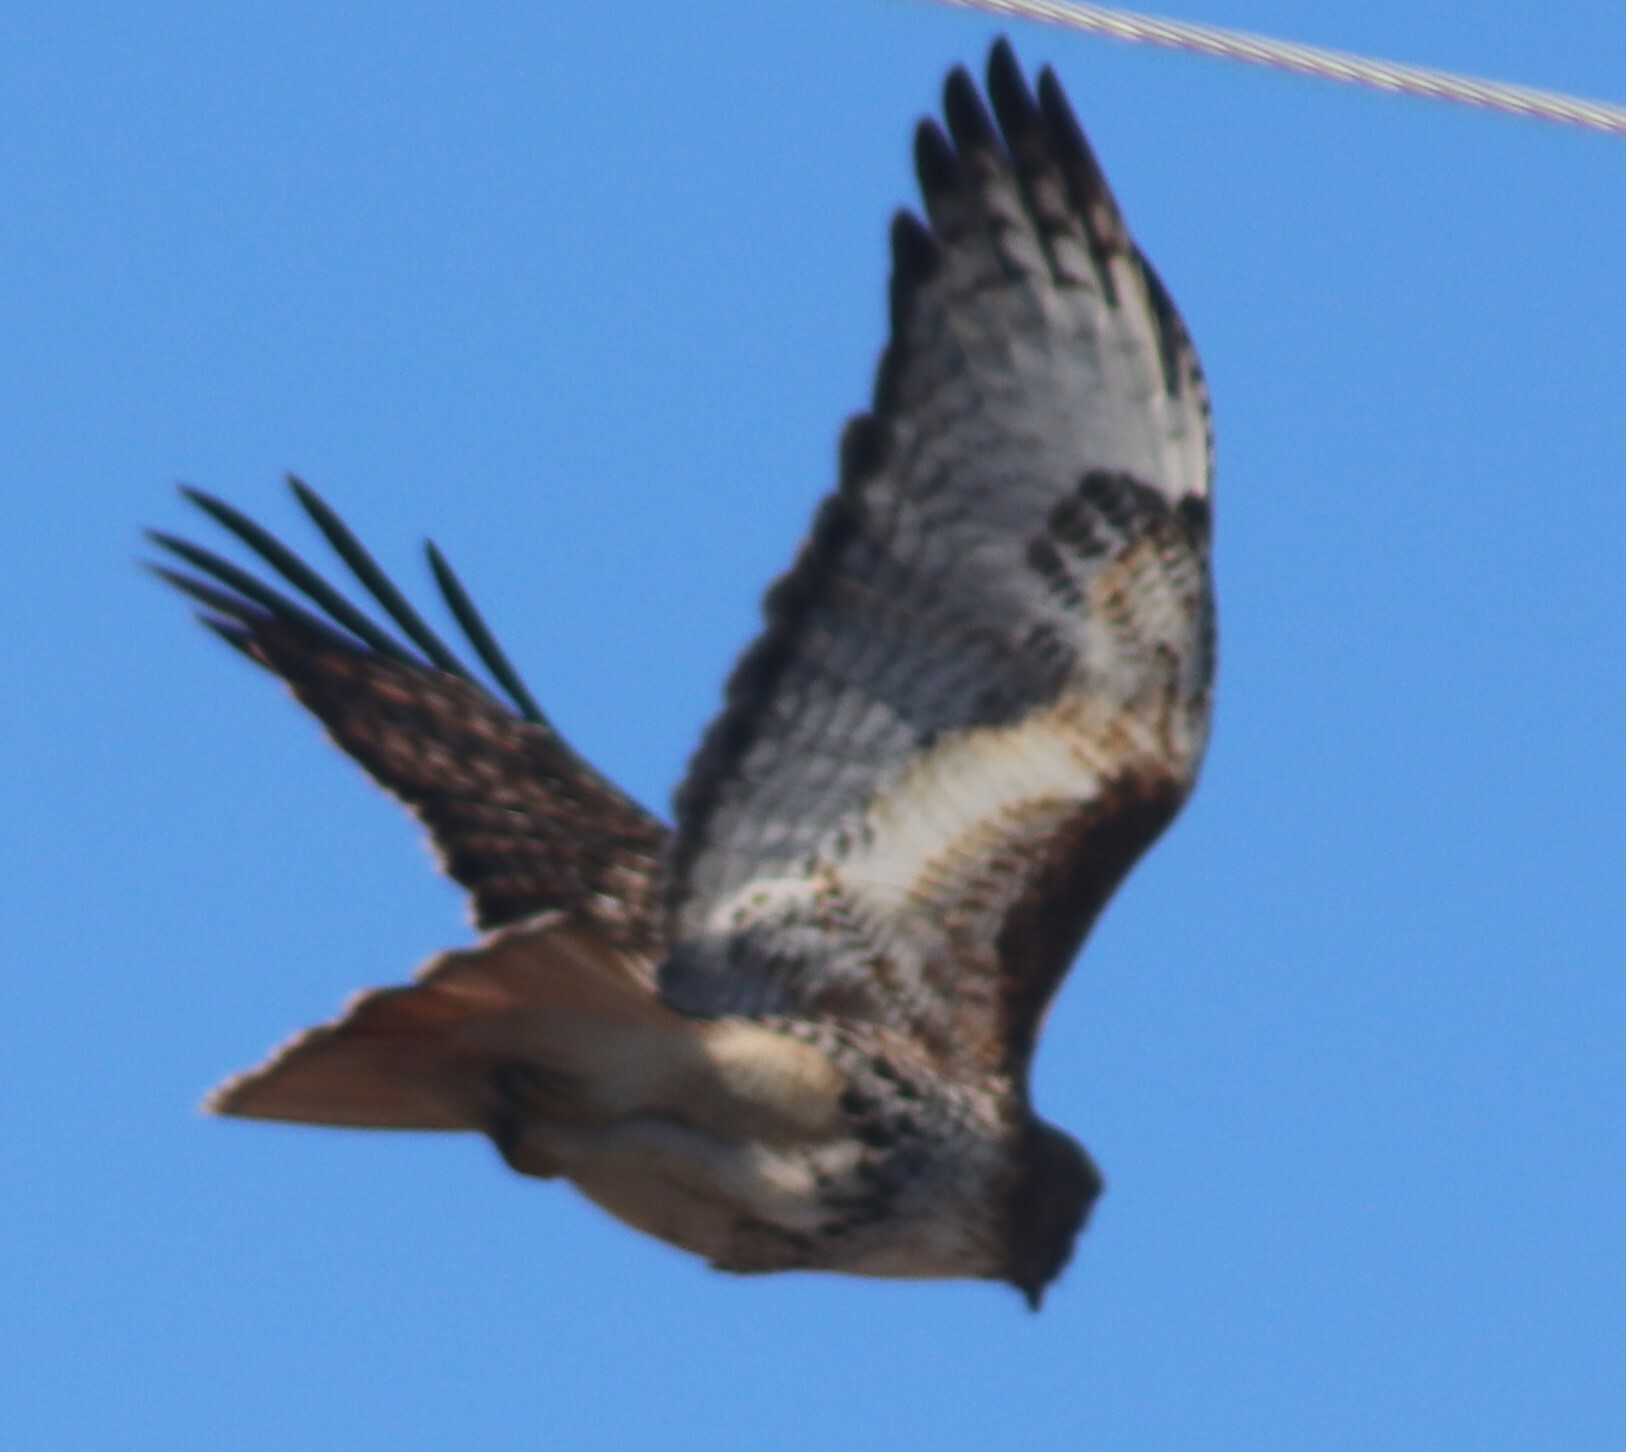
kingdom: Animalia
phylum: Chordata
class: Aves
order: Accipitriformes
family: Accipitridae
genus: Buteo
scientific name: Buteo jamaicensis
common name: Red-tailed hawk
